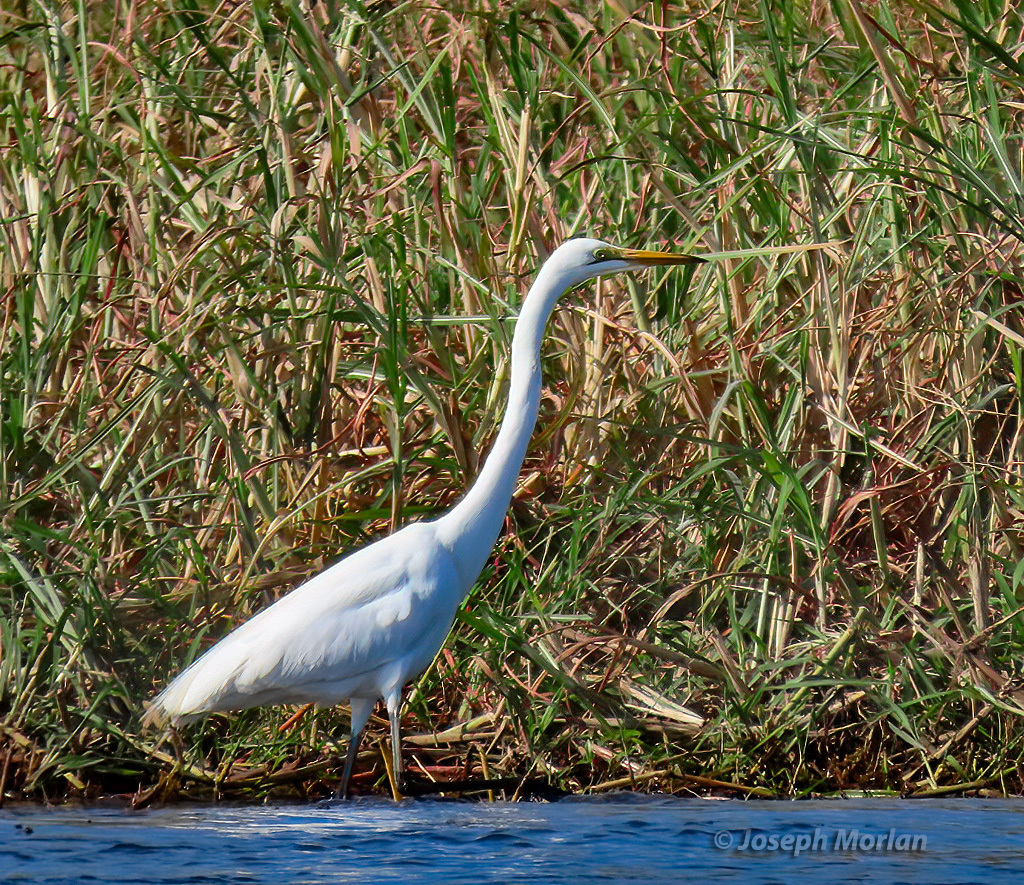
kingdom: Animalia
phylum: Chordata
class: Aves
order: Pelecaniformes
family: Ardeidae
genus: Ardea
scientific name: Ardea alba
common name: Great egret
